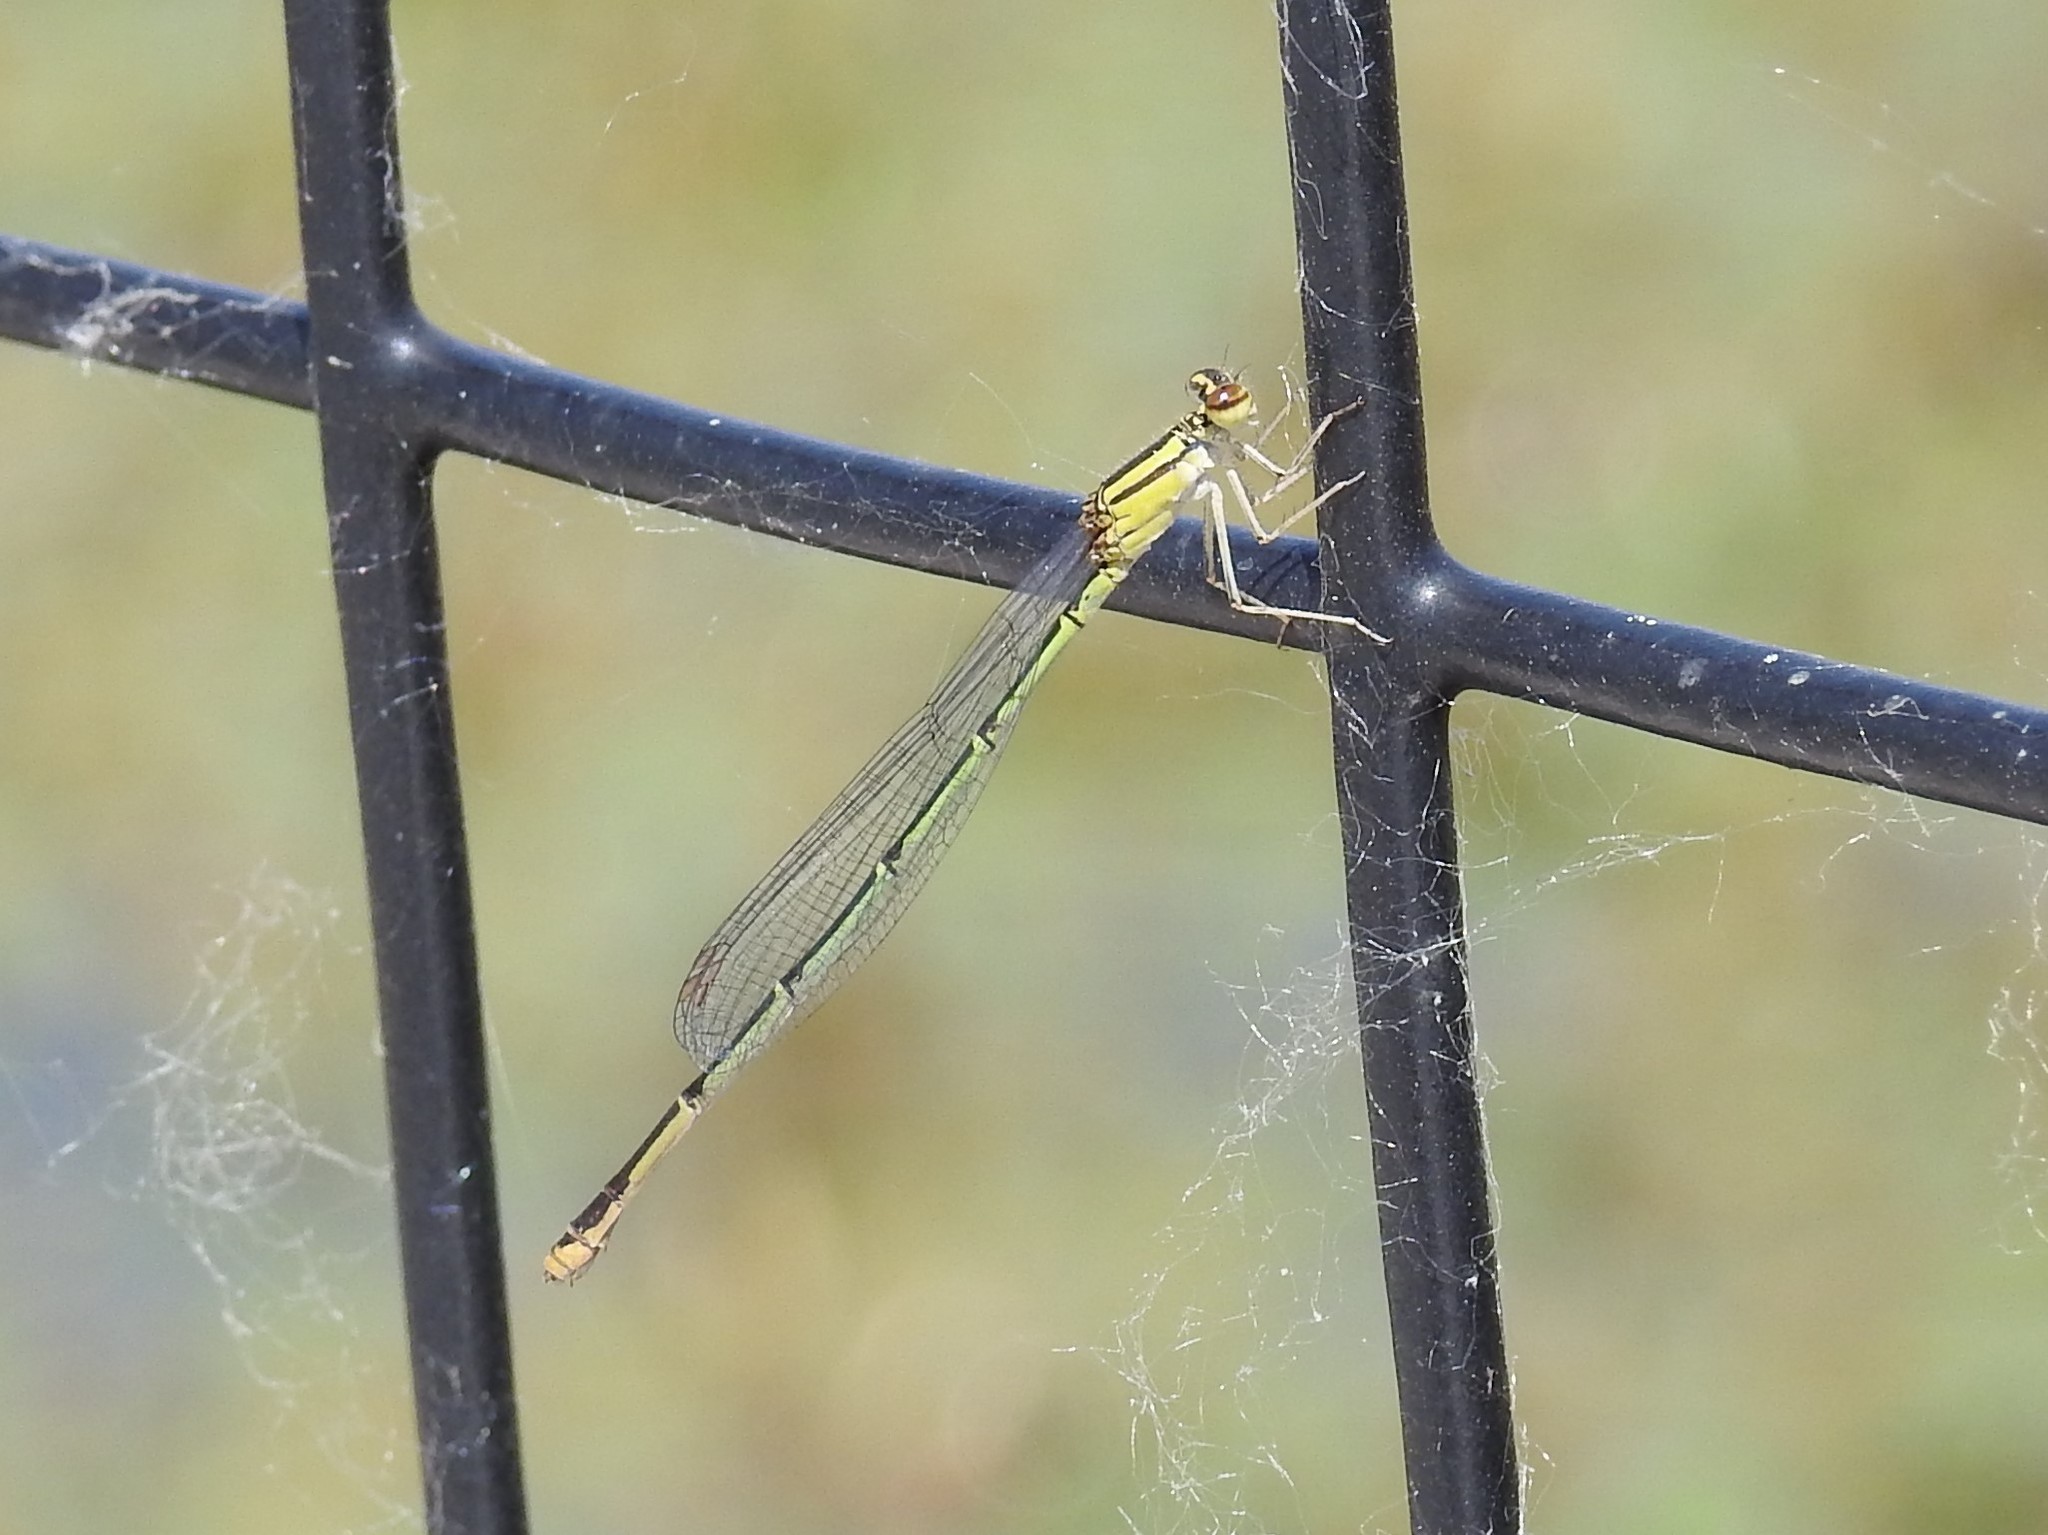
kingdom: Animalia
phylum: Arthropoda
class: Insecta
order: Odonata
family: Coenagrionidae
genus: Enallagma
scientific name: Enallagma signatum
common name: Orange bluet
